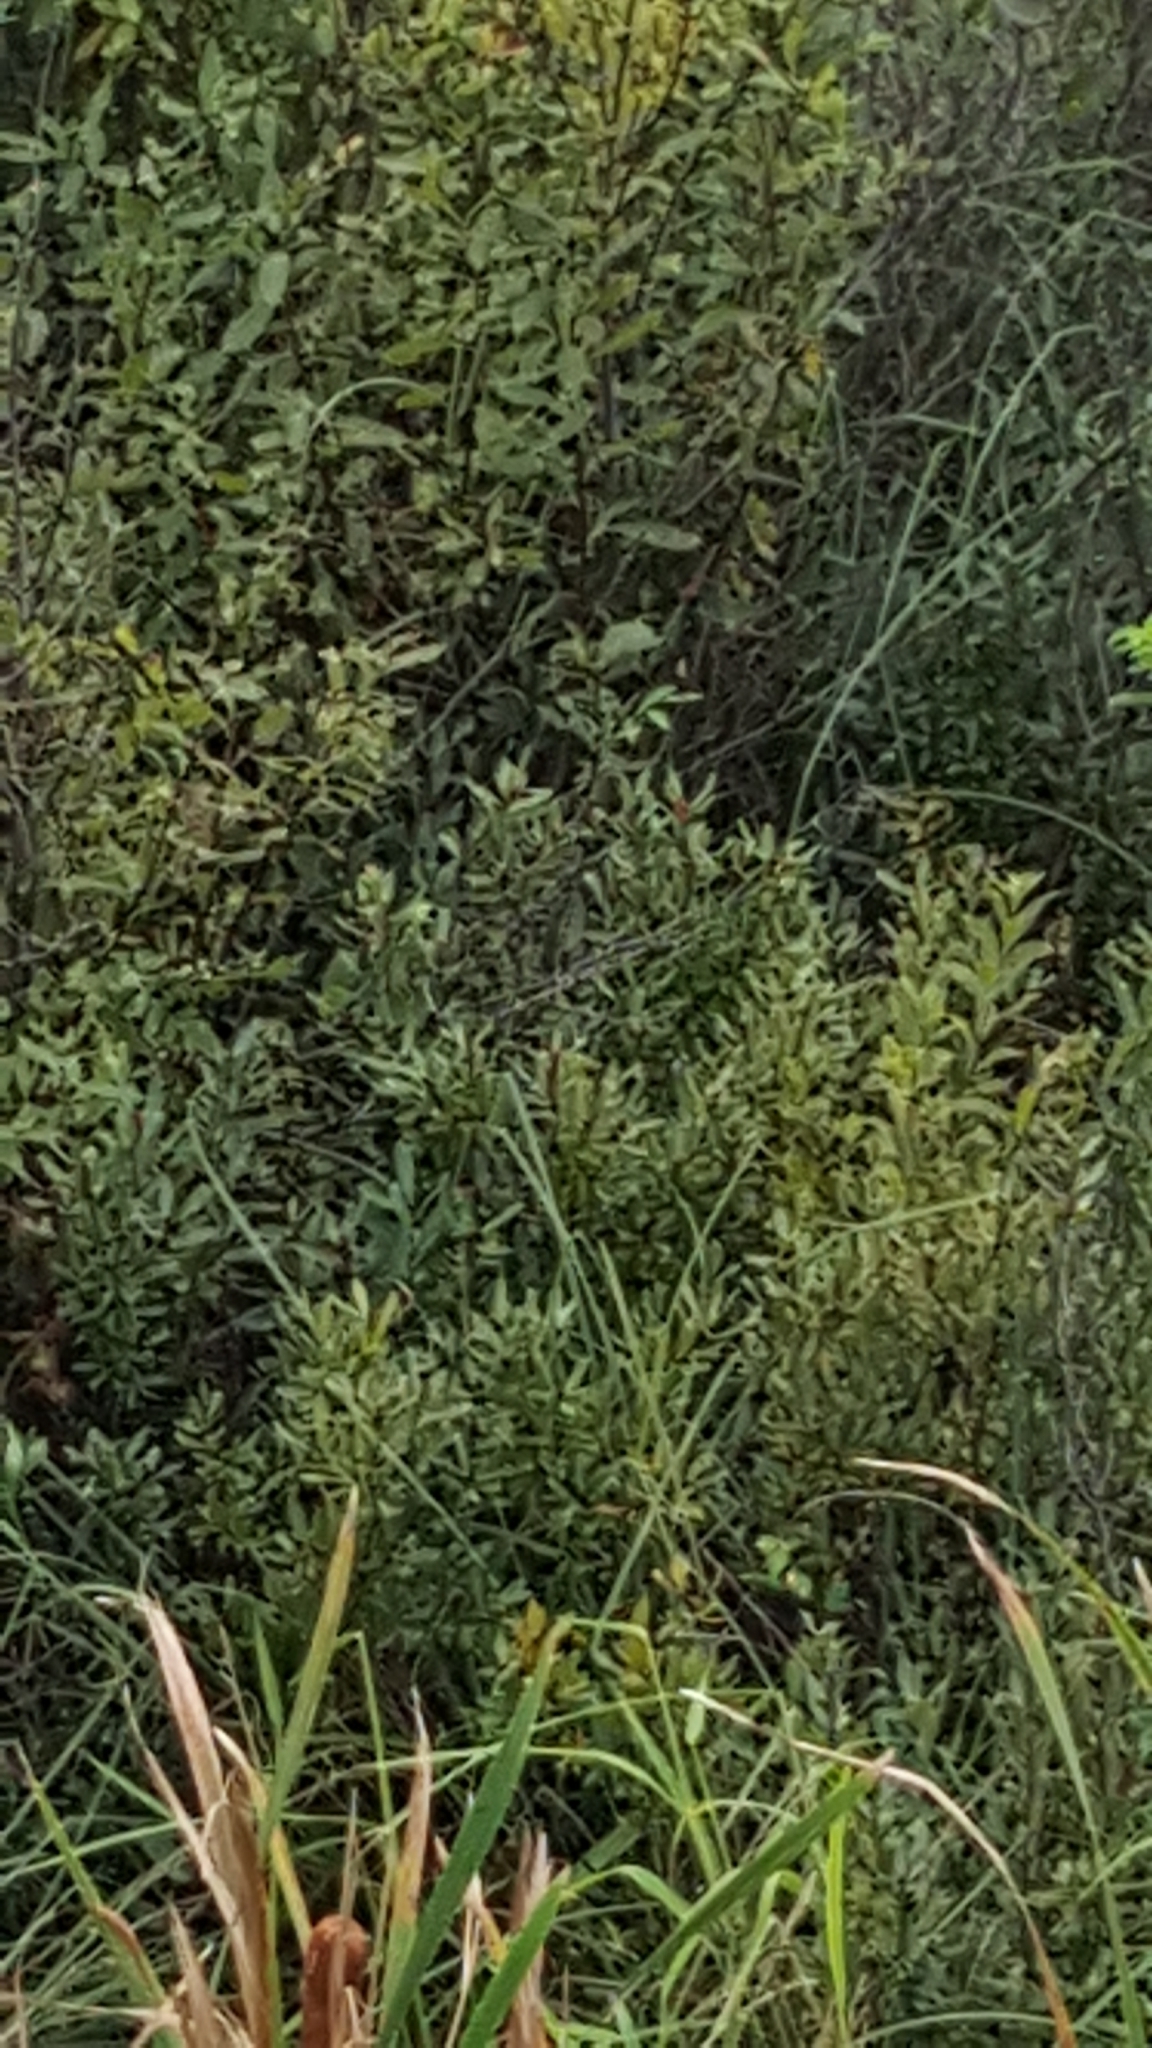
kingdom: Plantae
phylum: Tracheophyta
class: Magnoliopsida
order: Fagales
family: Myricaceae
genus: Myrica
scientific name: Myrica gale
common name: Sweet gale
